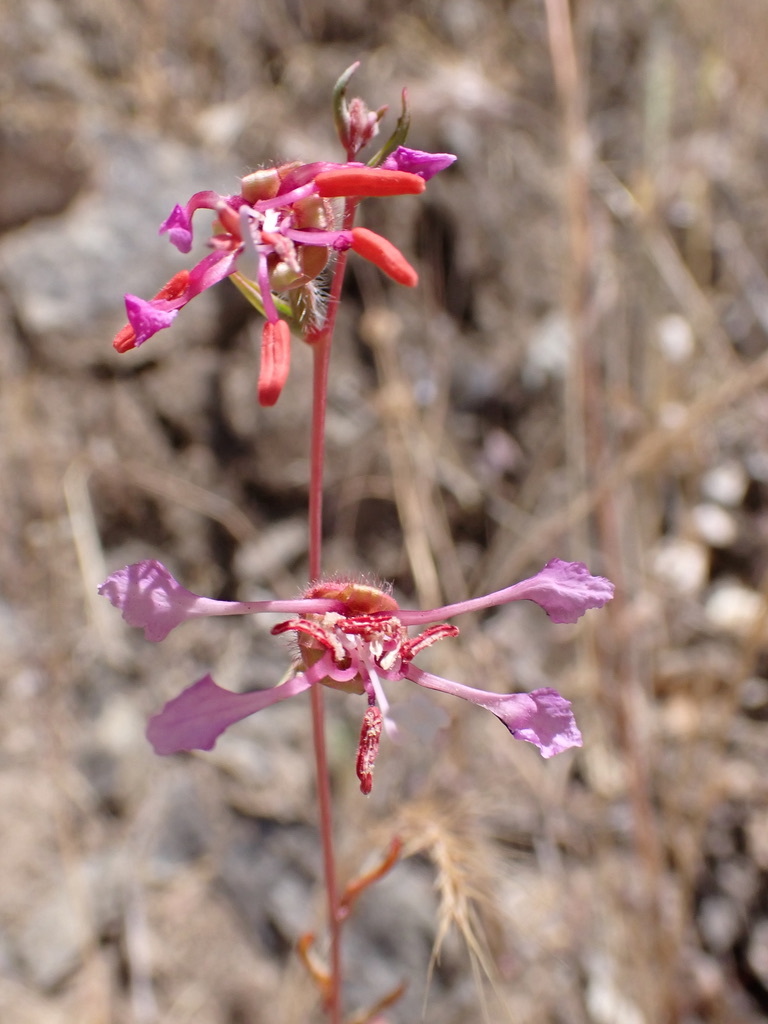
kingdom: Plantae
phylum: Tracheophyta
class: Magnoliopsida
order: Myrtales
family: Onagraceae
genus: Clarkia
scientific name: Clarkia unguiculata
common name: Clarkia
